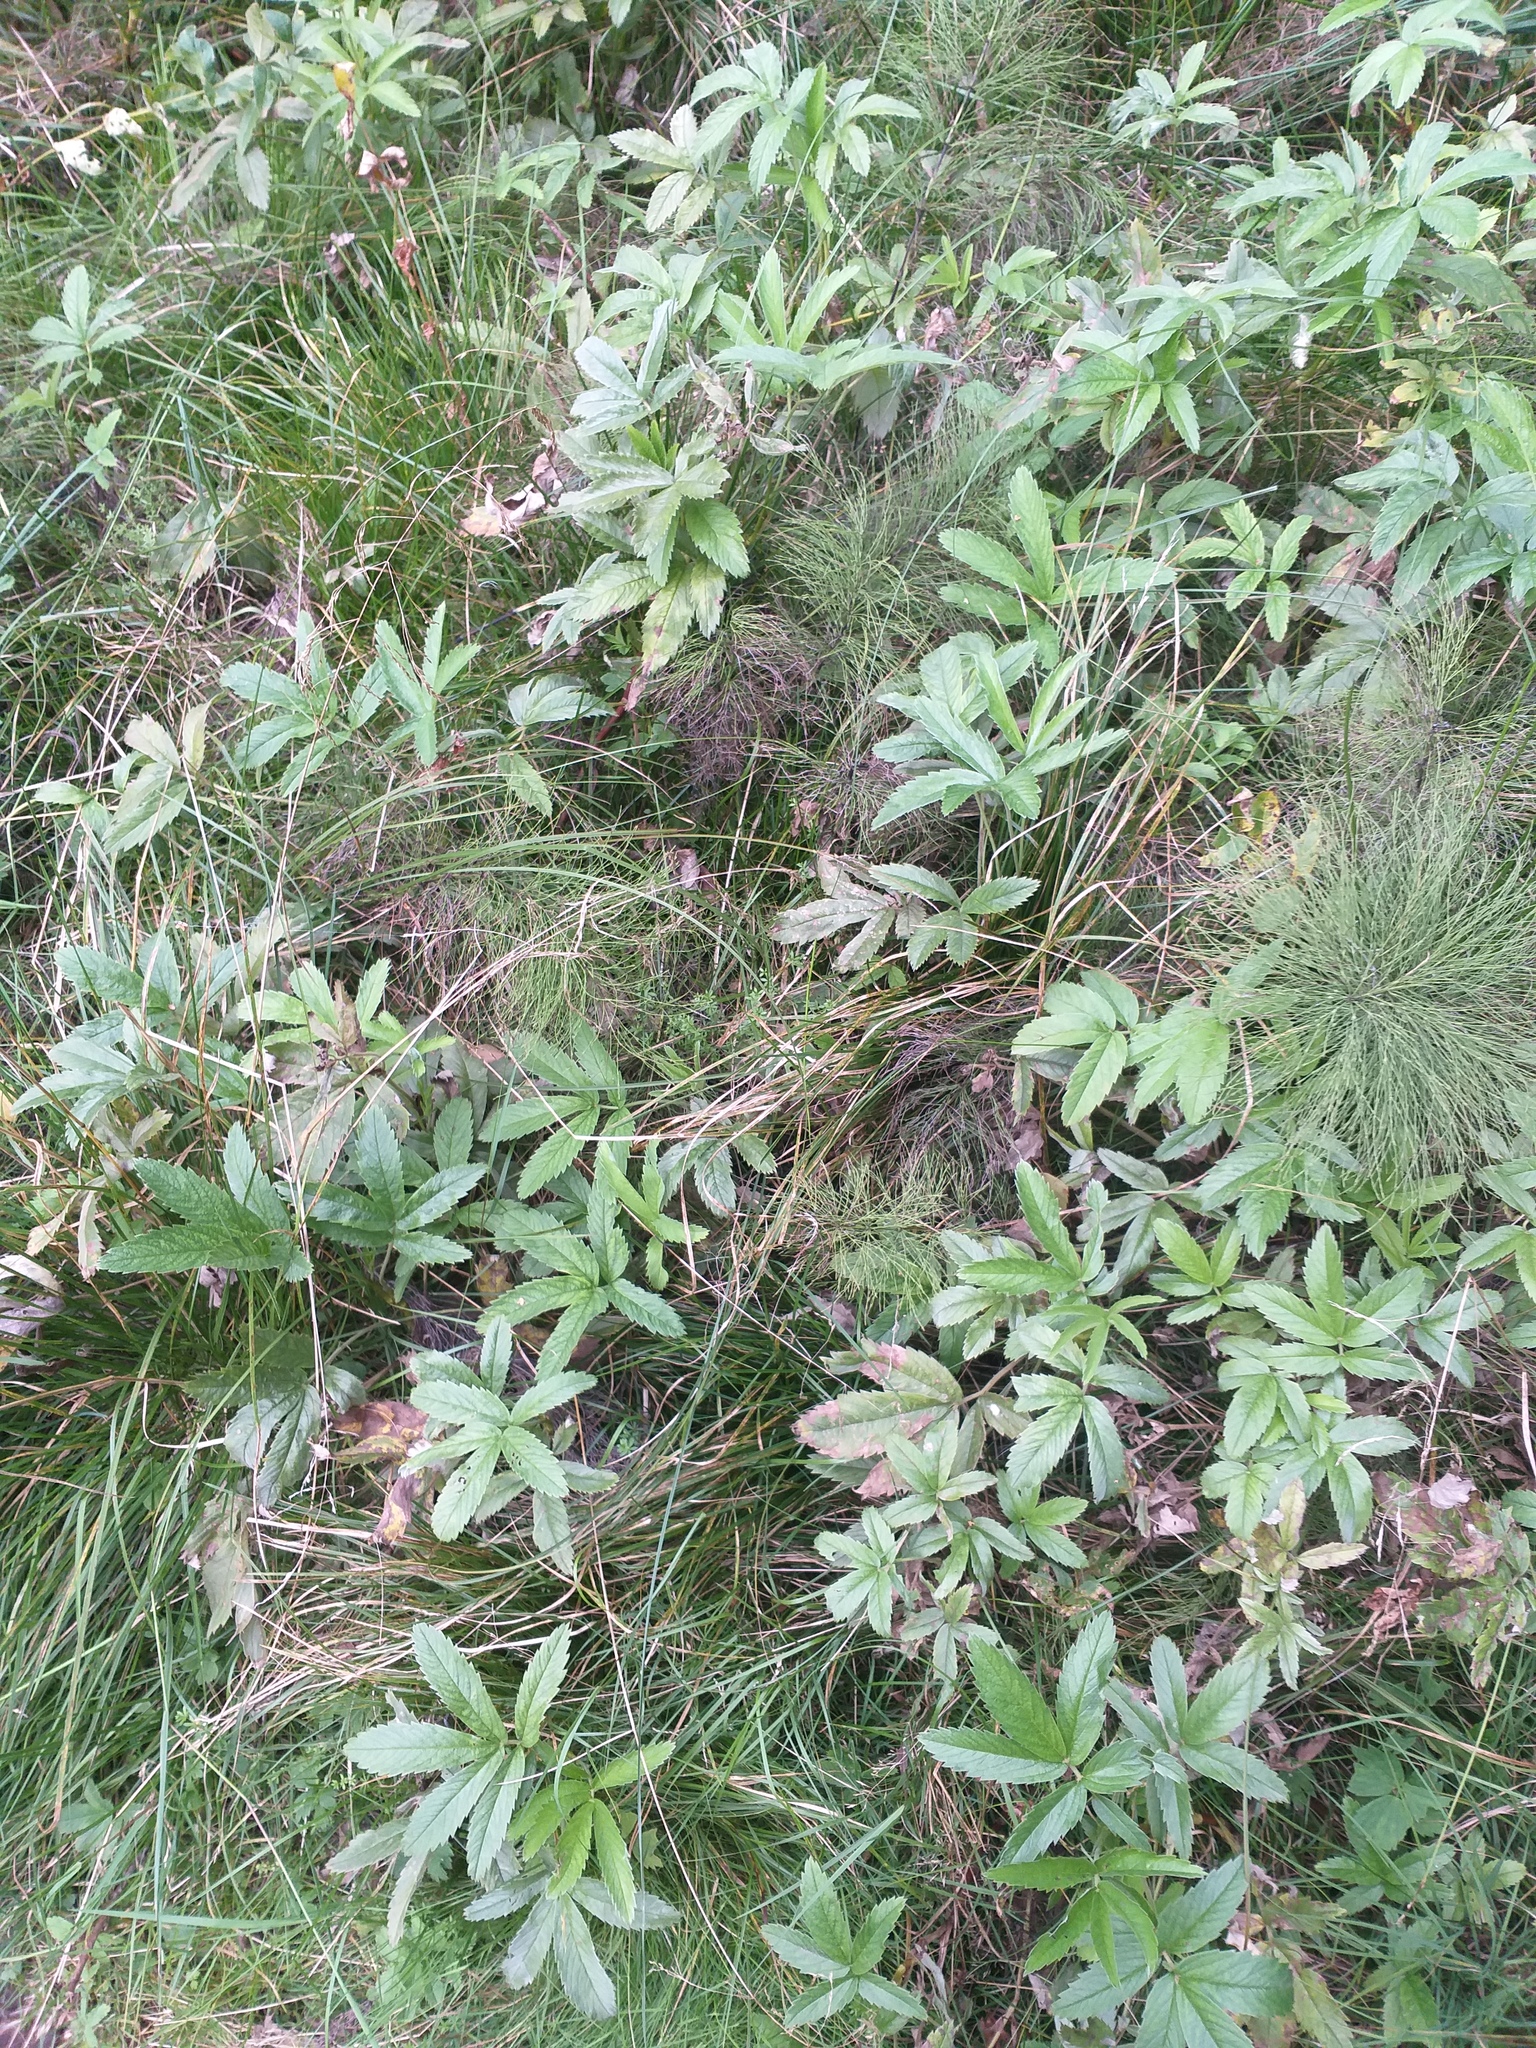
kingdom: Plantae
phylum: Tracheophyta
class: Magnoliopsida
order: Rosales
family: Rosaceae
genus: Comarum
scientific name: Comarum palustre
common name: Marsh cinquefoil
